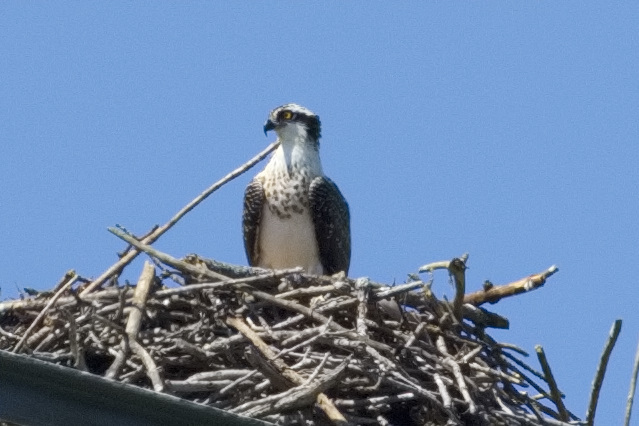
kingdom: Animalia
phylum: Chordata
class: Aves
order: Accipitriformes
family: Pandionidae
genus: Pandion
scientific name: Pandion haliaetus
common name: Osprey
